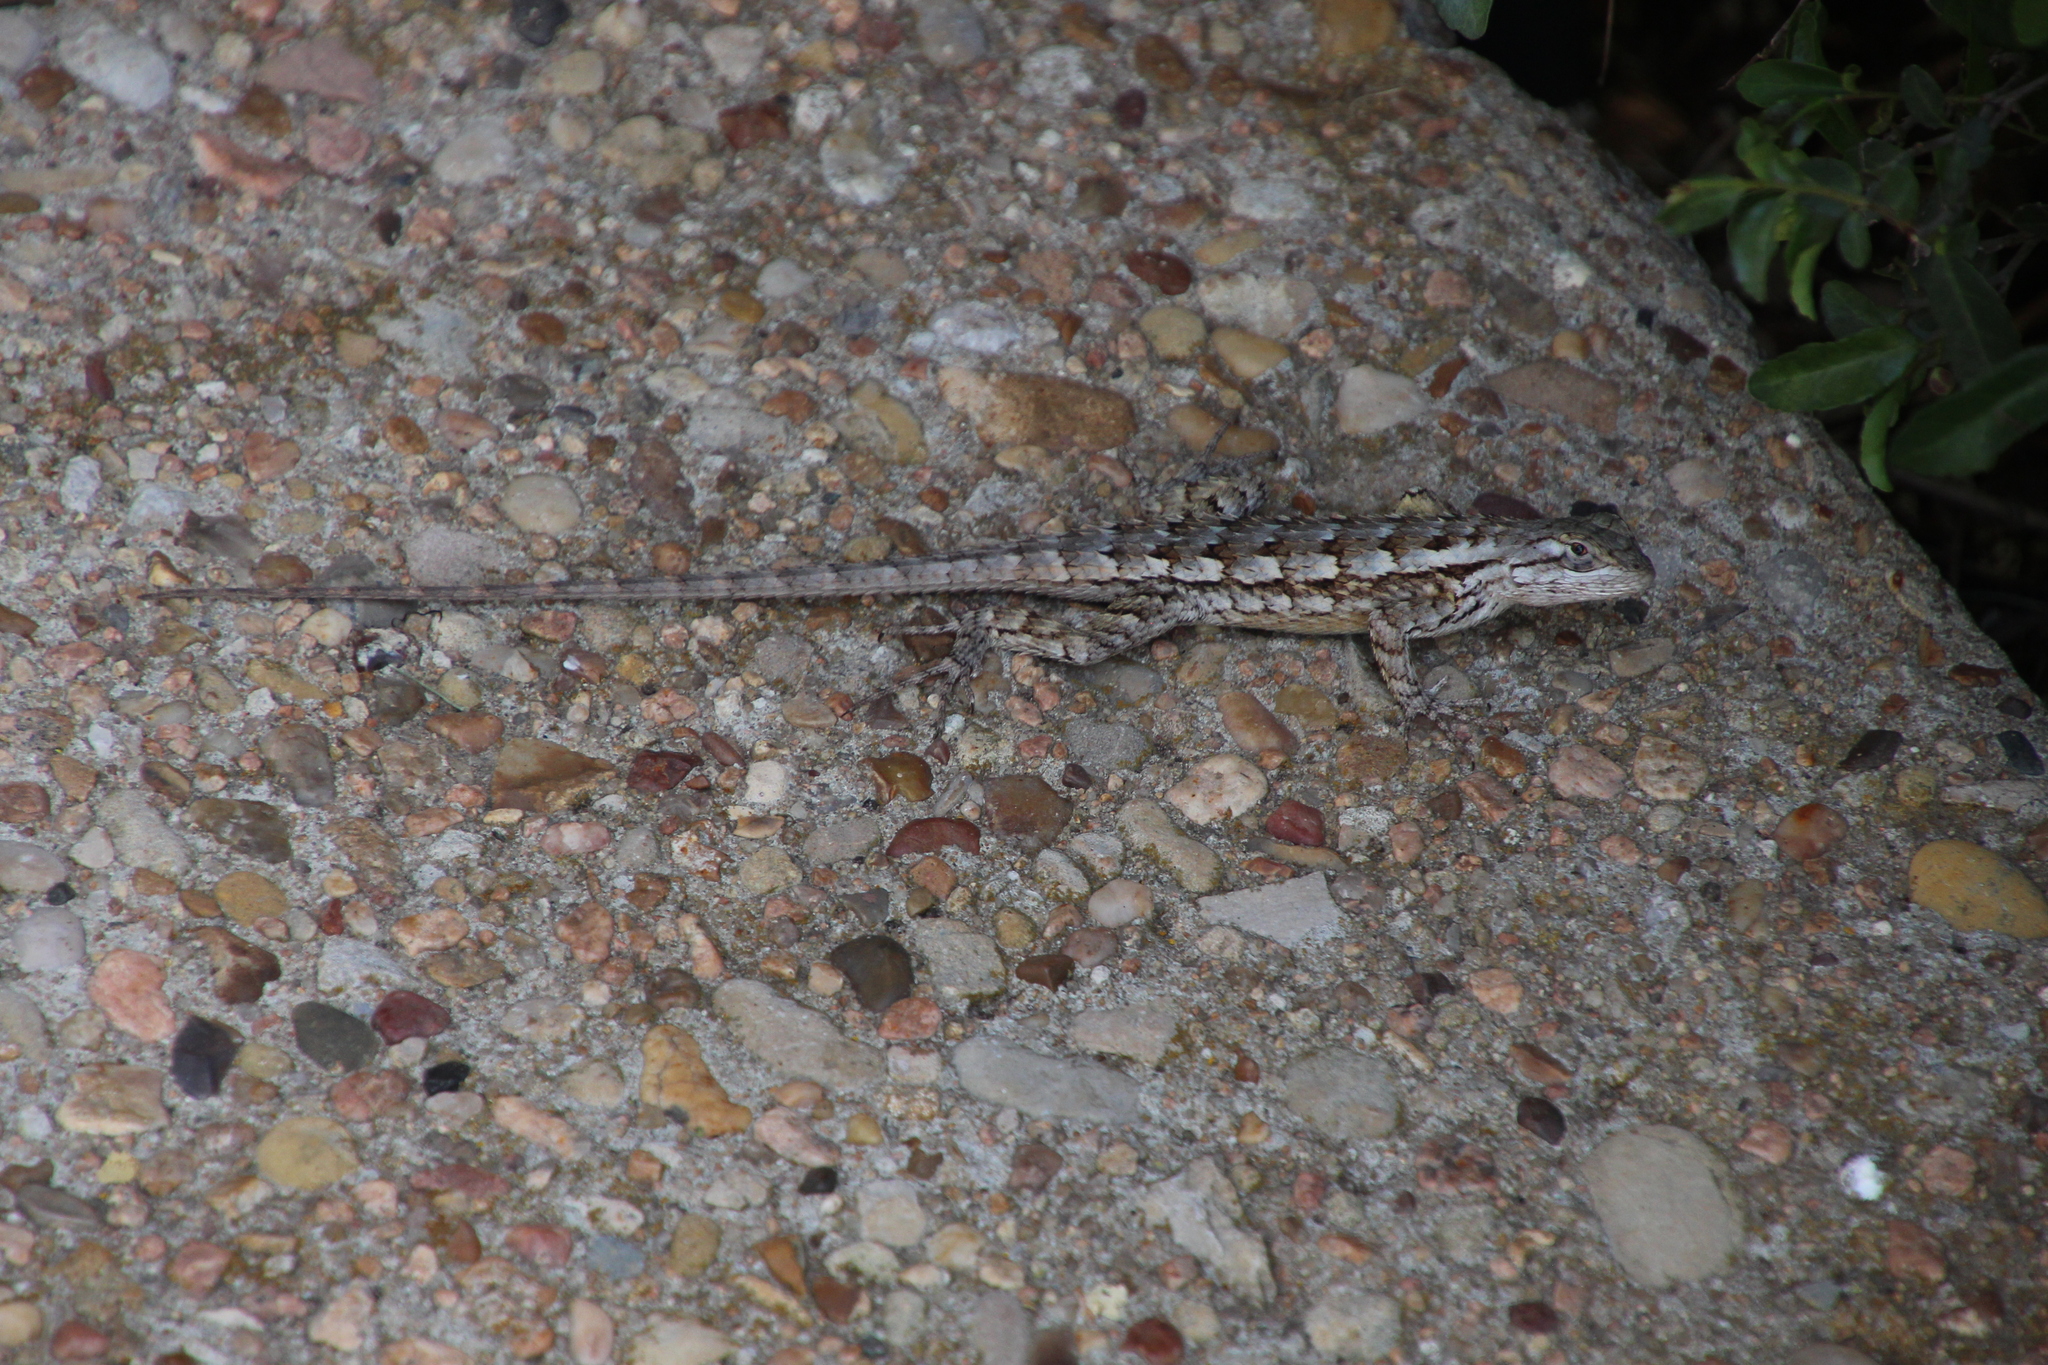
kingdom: Animalia
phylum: Chordata
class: Squamata
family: Phrynosomatidae
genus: Sceloporus
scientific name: Sceloporus olivaceus
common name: Texas spiny lizard
